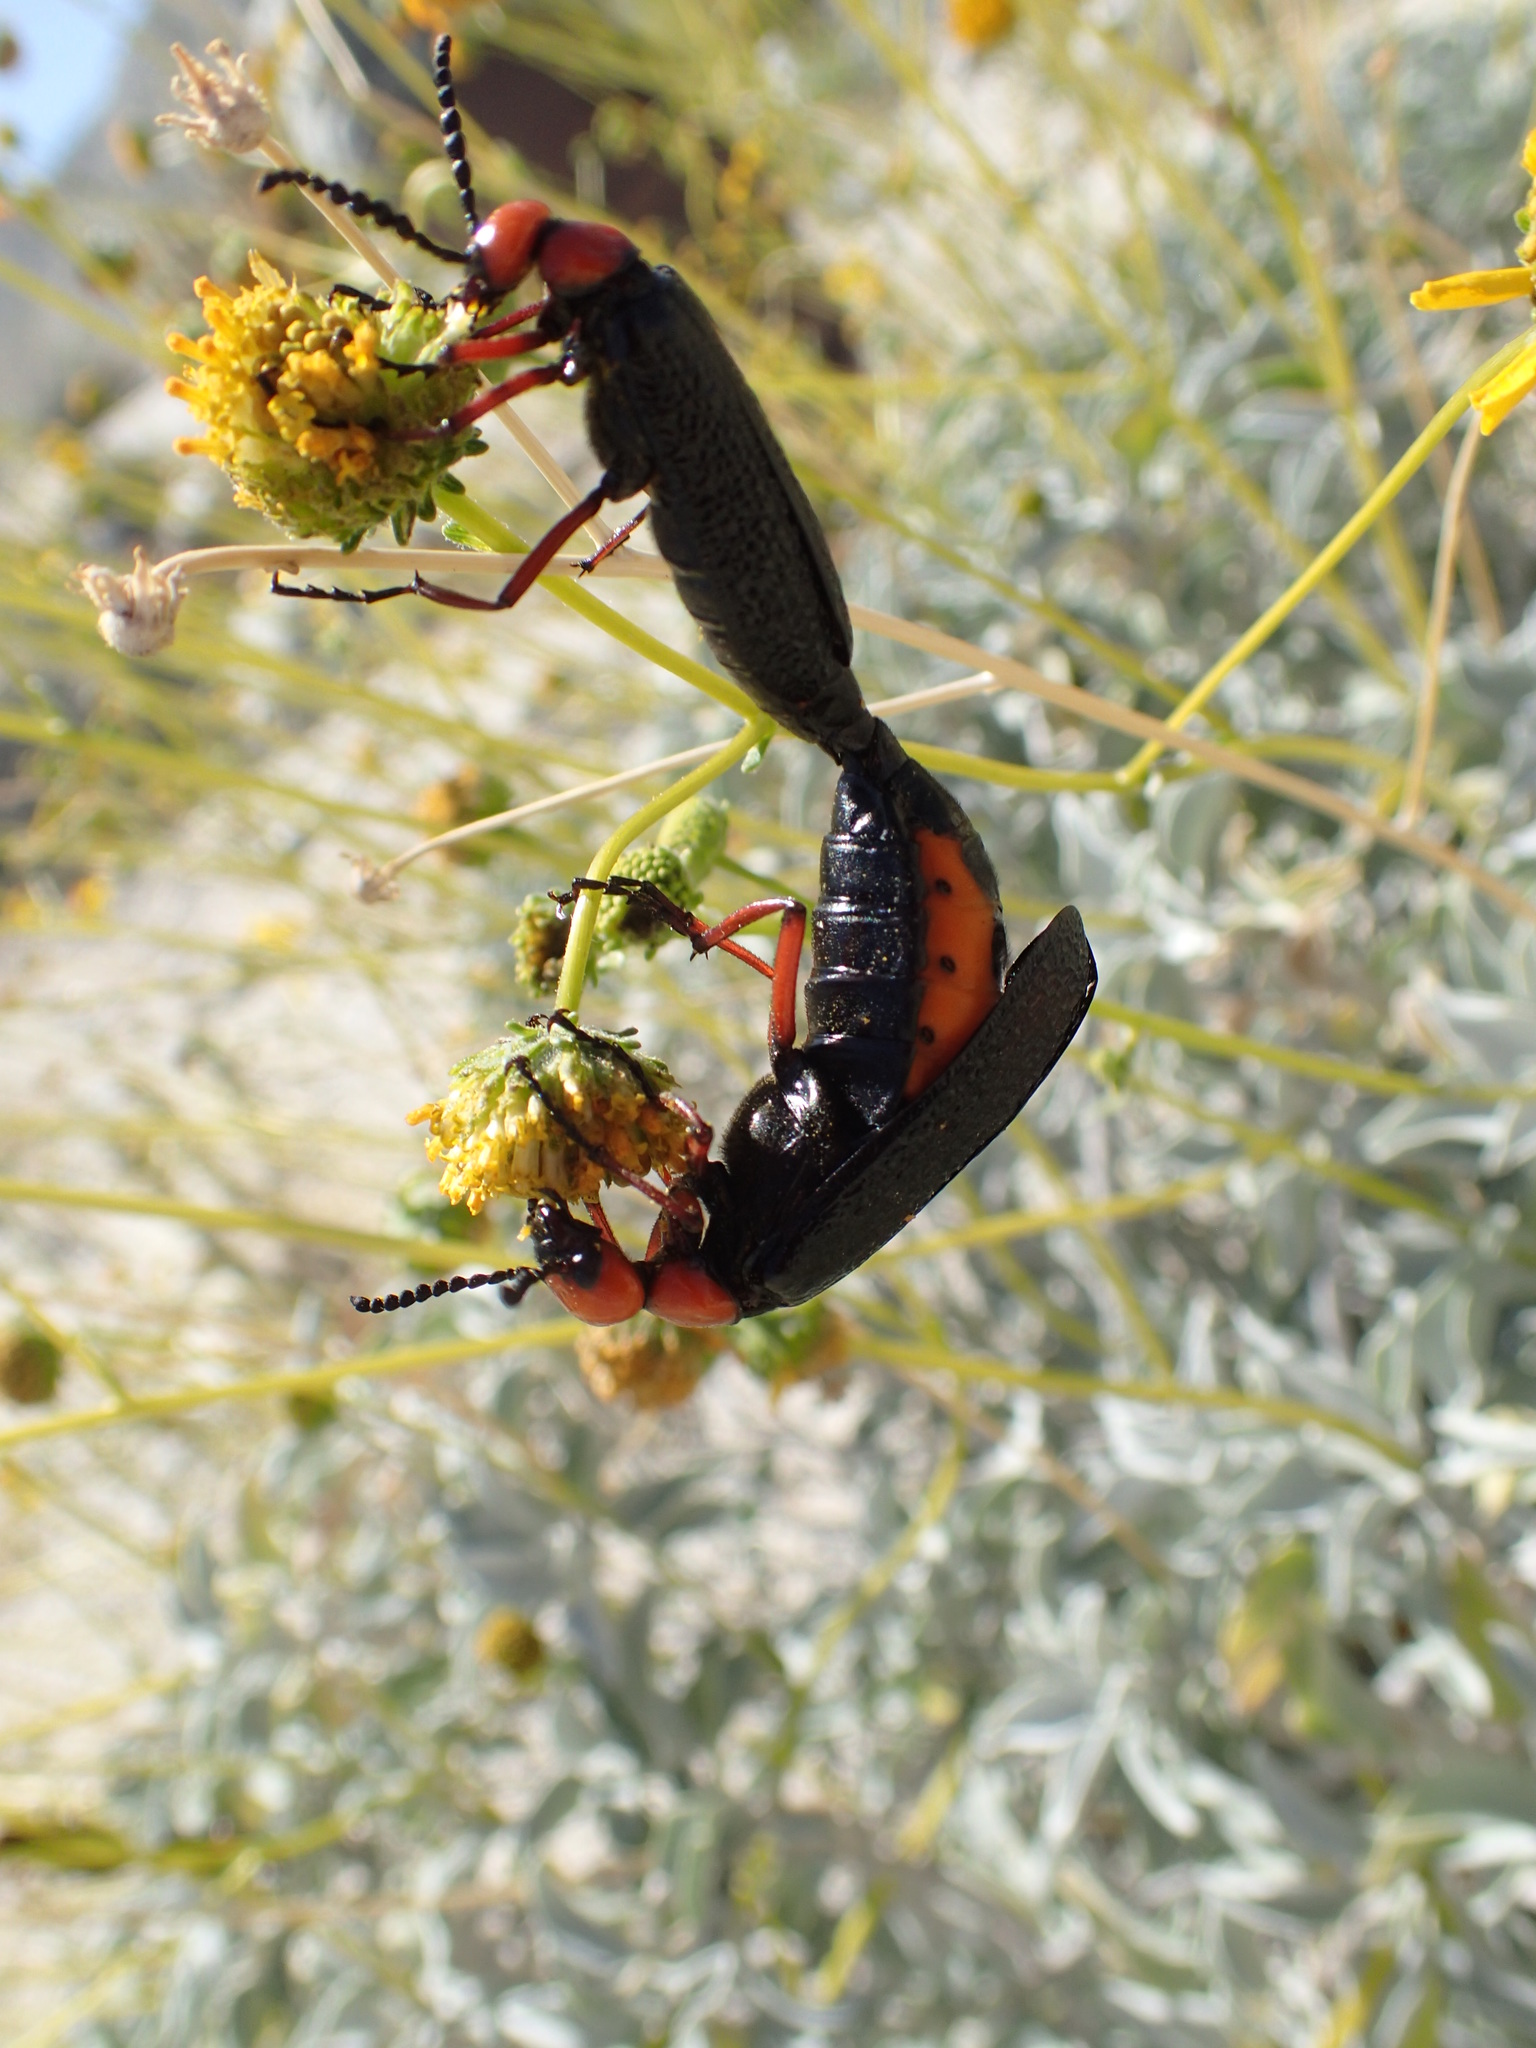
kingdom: Animalia
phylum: Arthropoda
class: Insecta
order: Coleoptera
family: Meloidae
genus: Lytta
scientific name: Lytta magister
